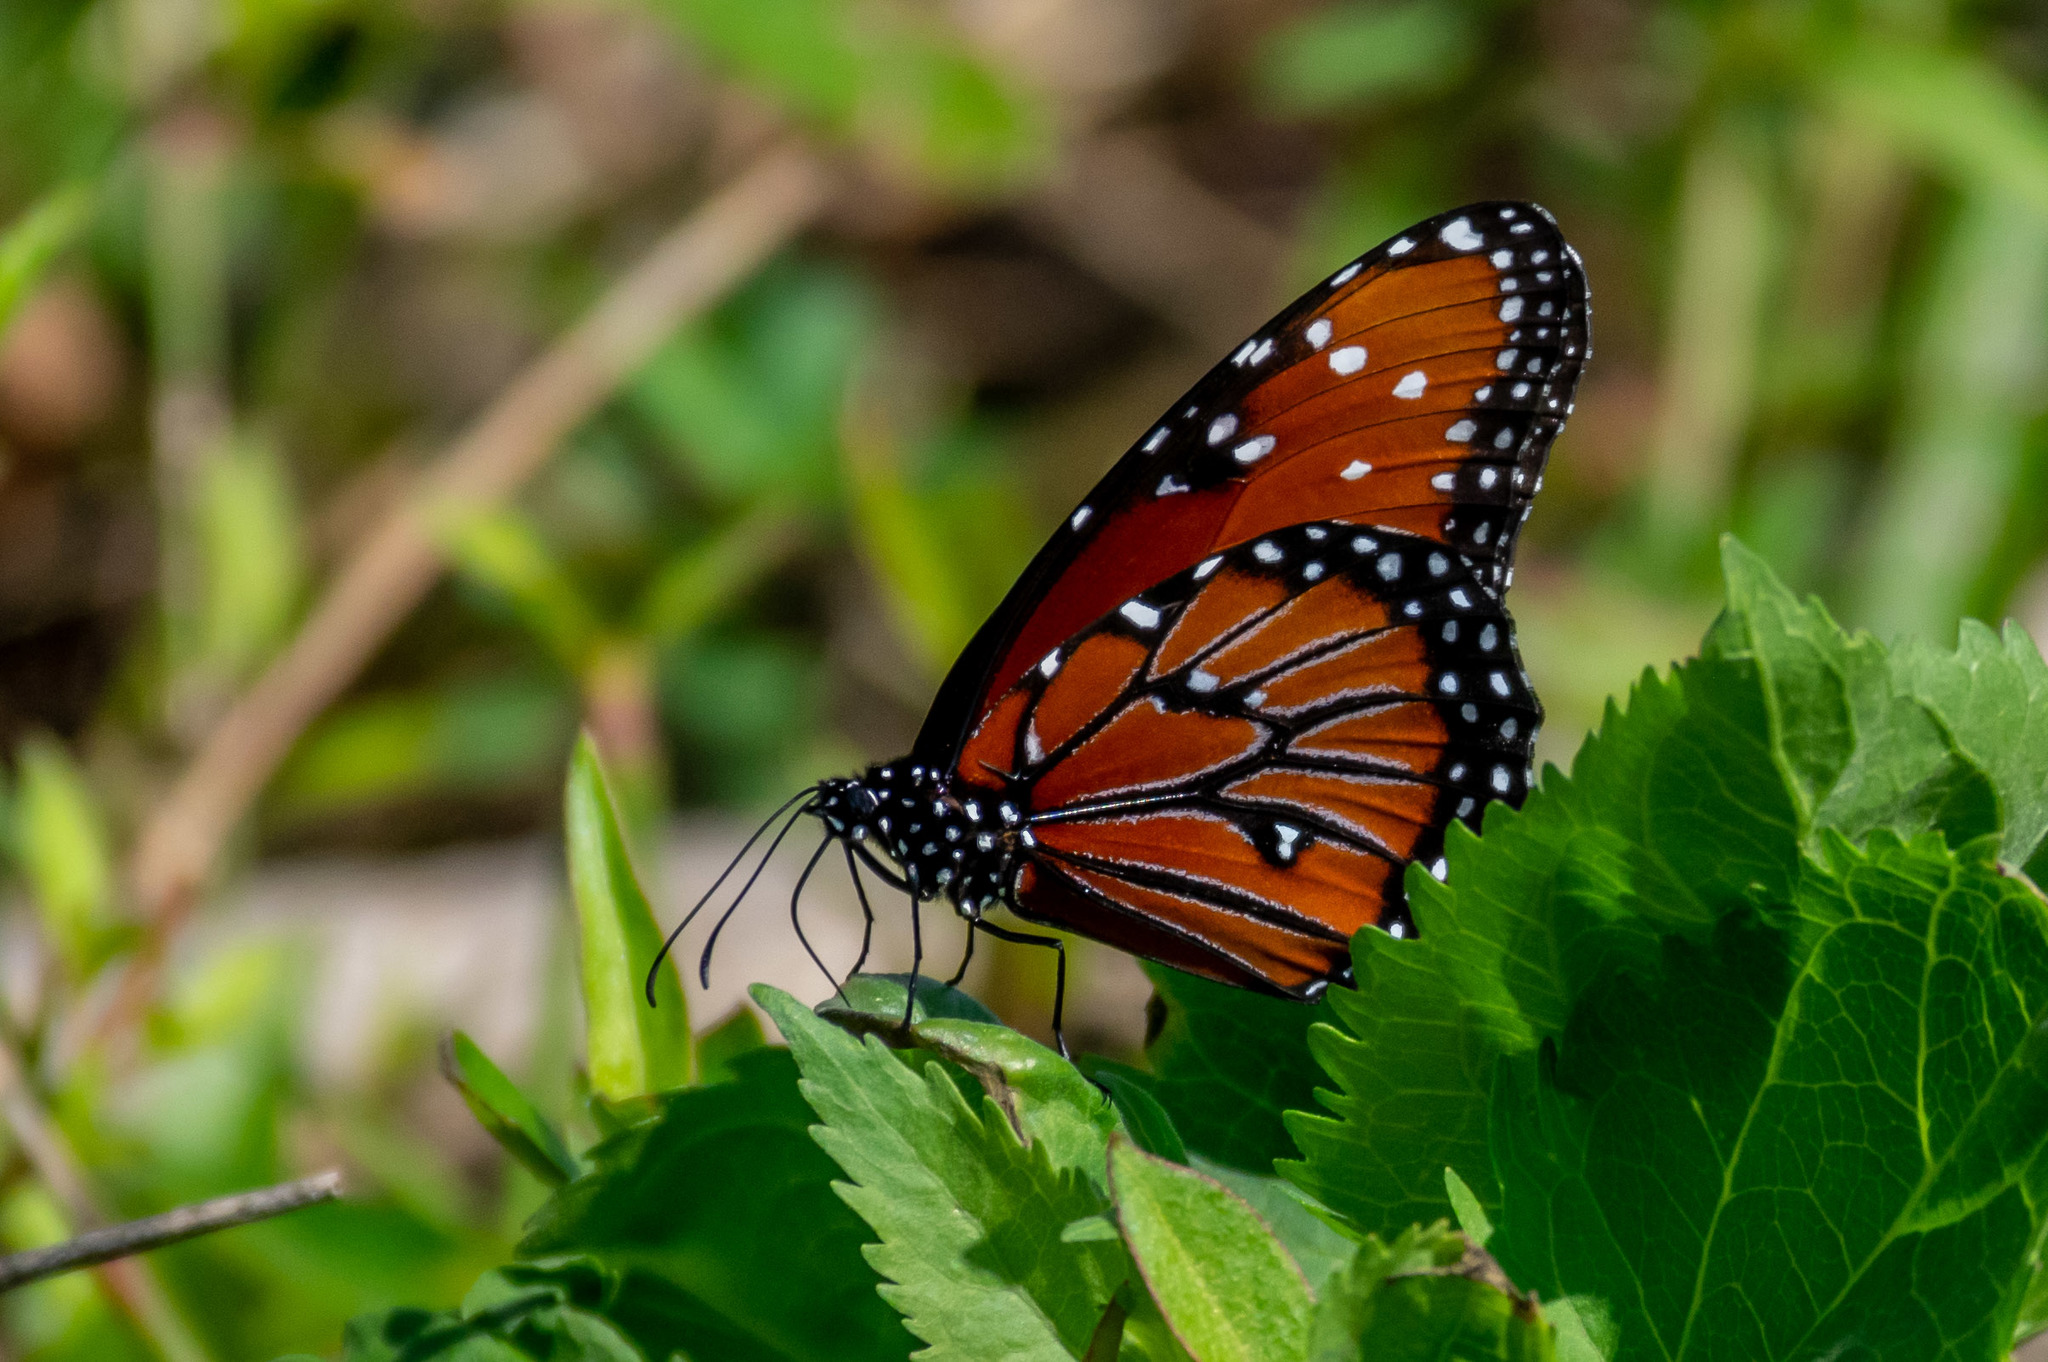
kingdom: Animalia
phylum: Arthropoda
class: Insecta
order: Lepidoptera
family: Nymphalidae
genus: Danaus
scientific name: Danaus gilippus
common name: Queen
